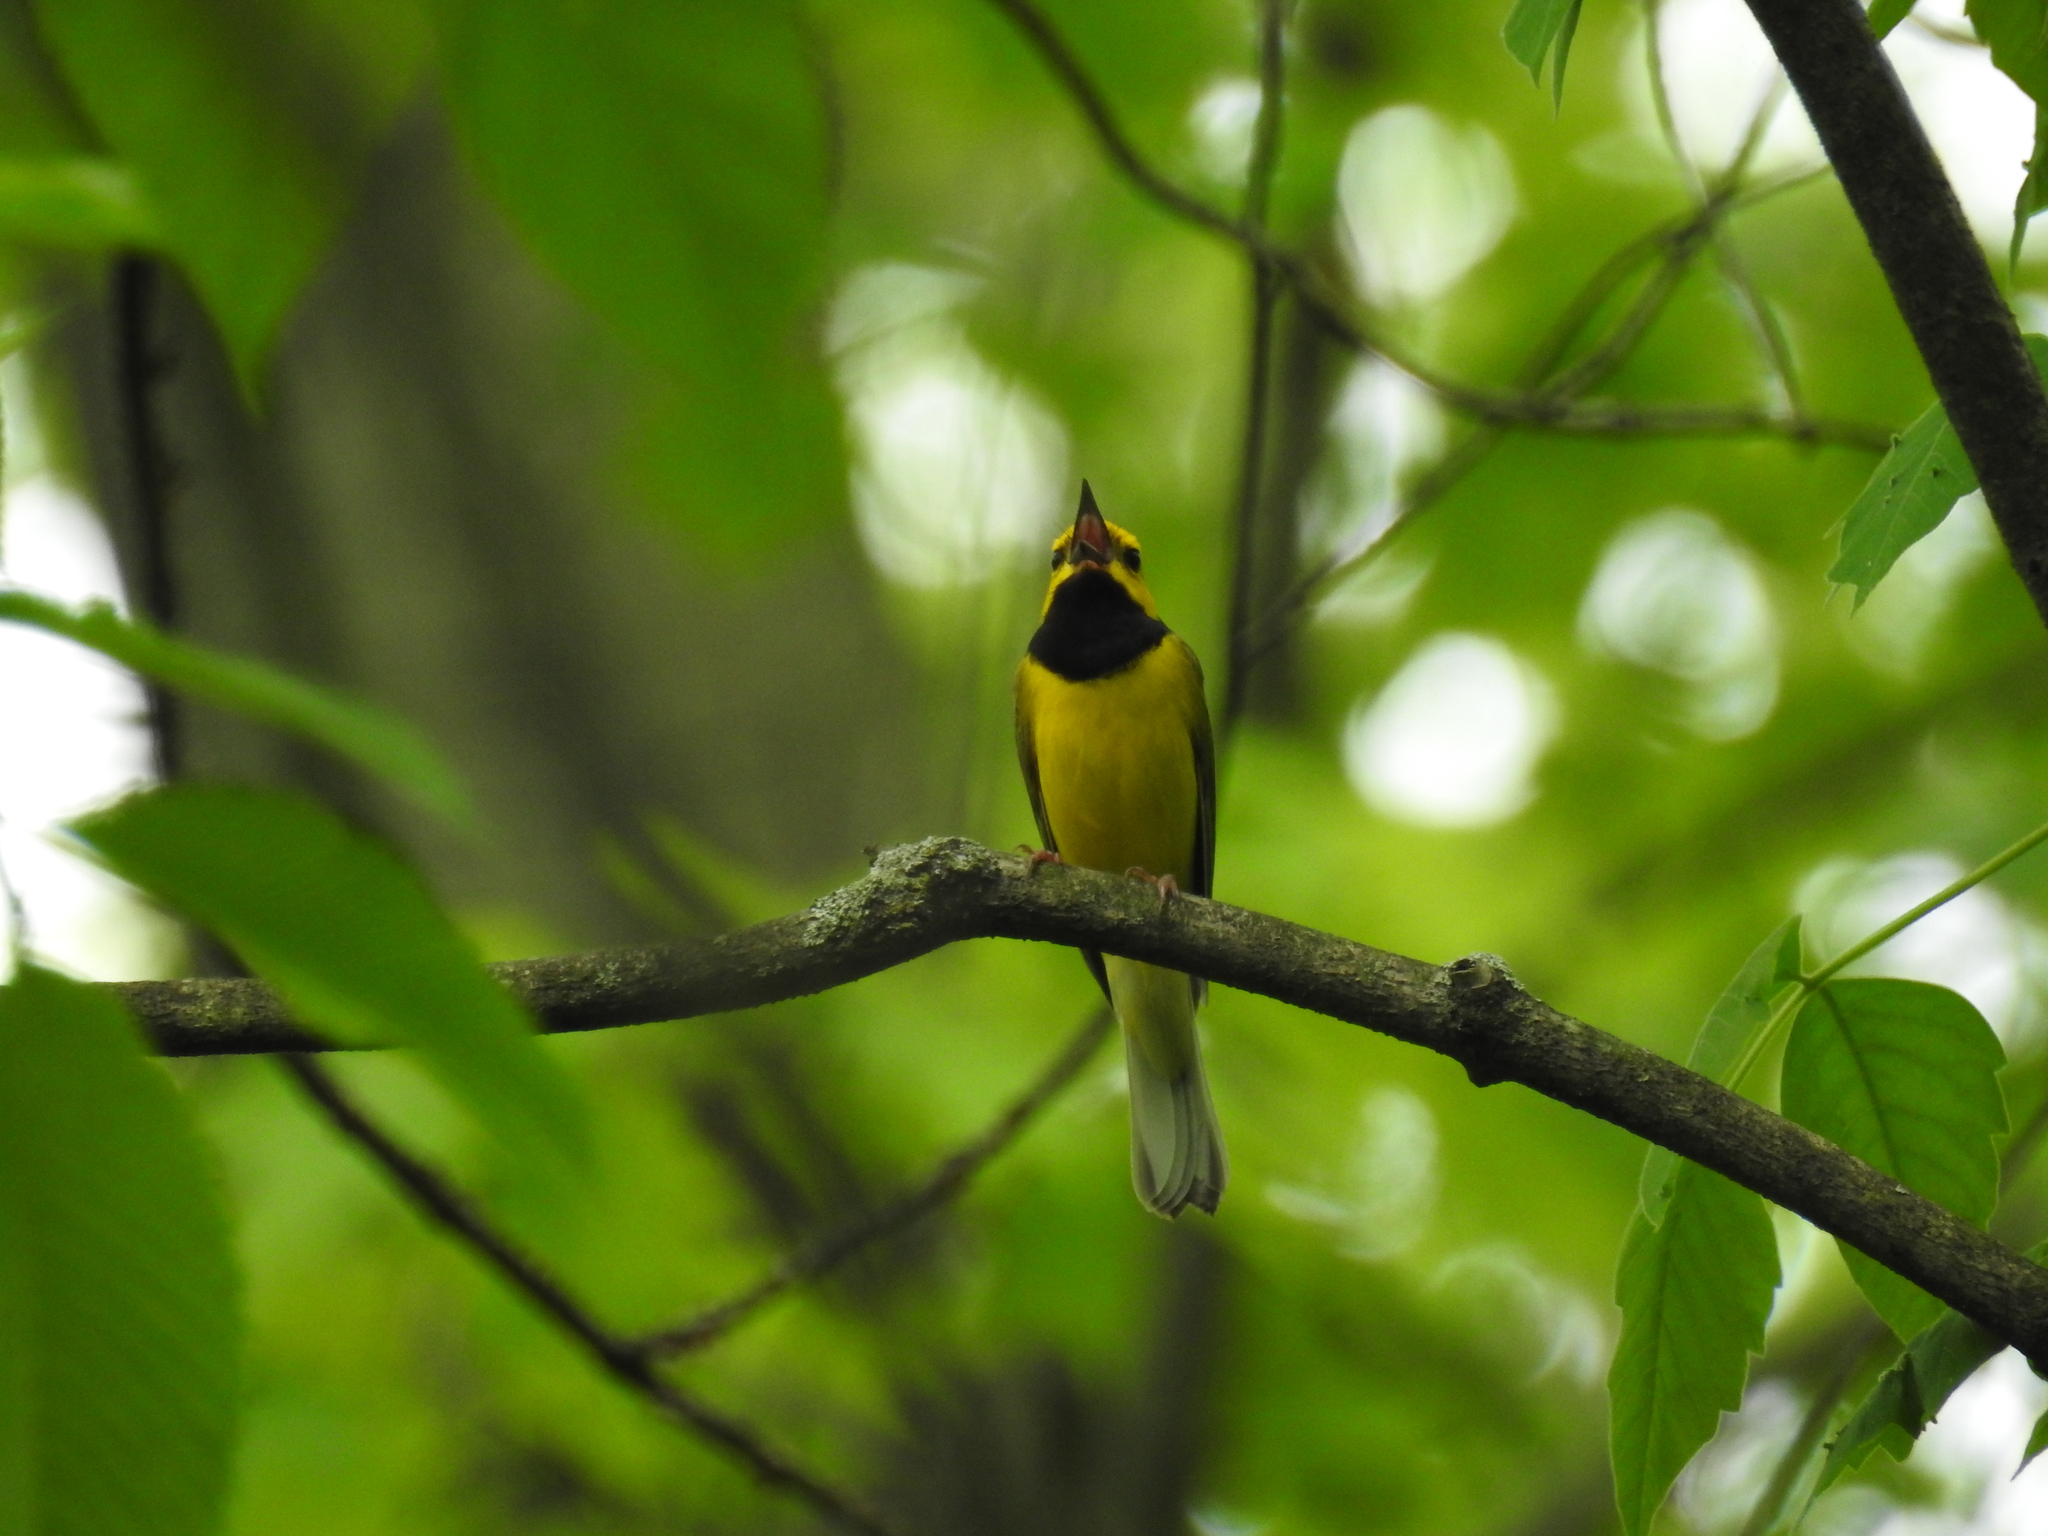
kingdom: Animalia
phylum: Chordata
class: Aves
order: Passeriformes
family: Parulidae
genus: Setophaga
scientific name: Setophaga citrina
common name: Hooded warbler
